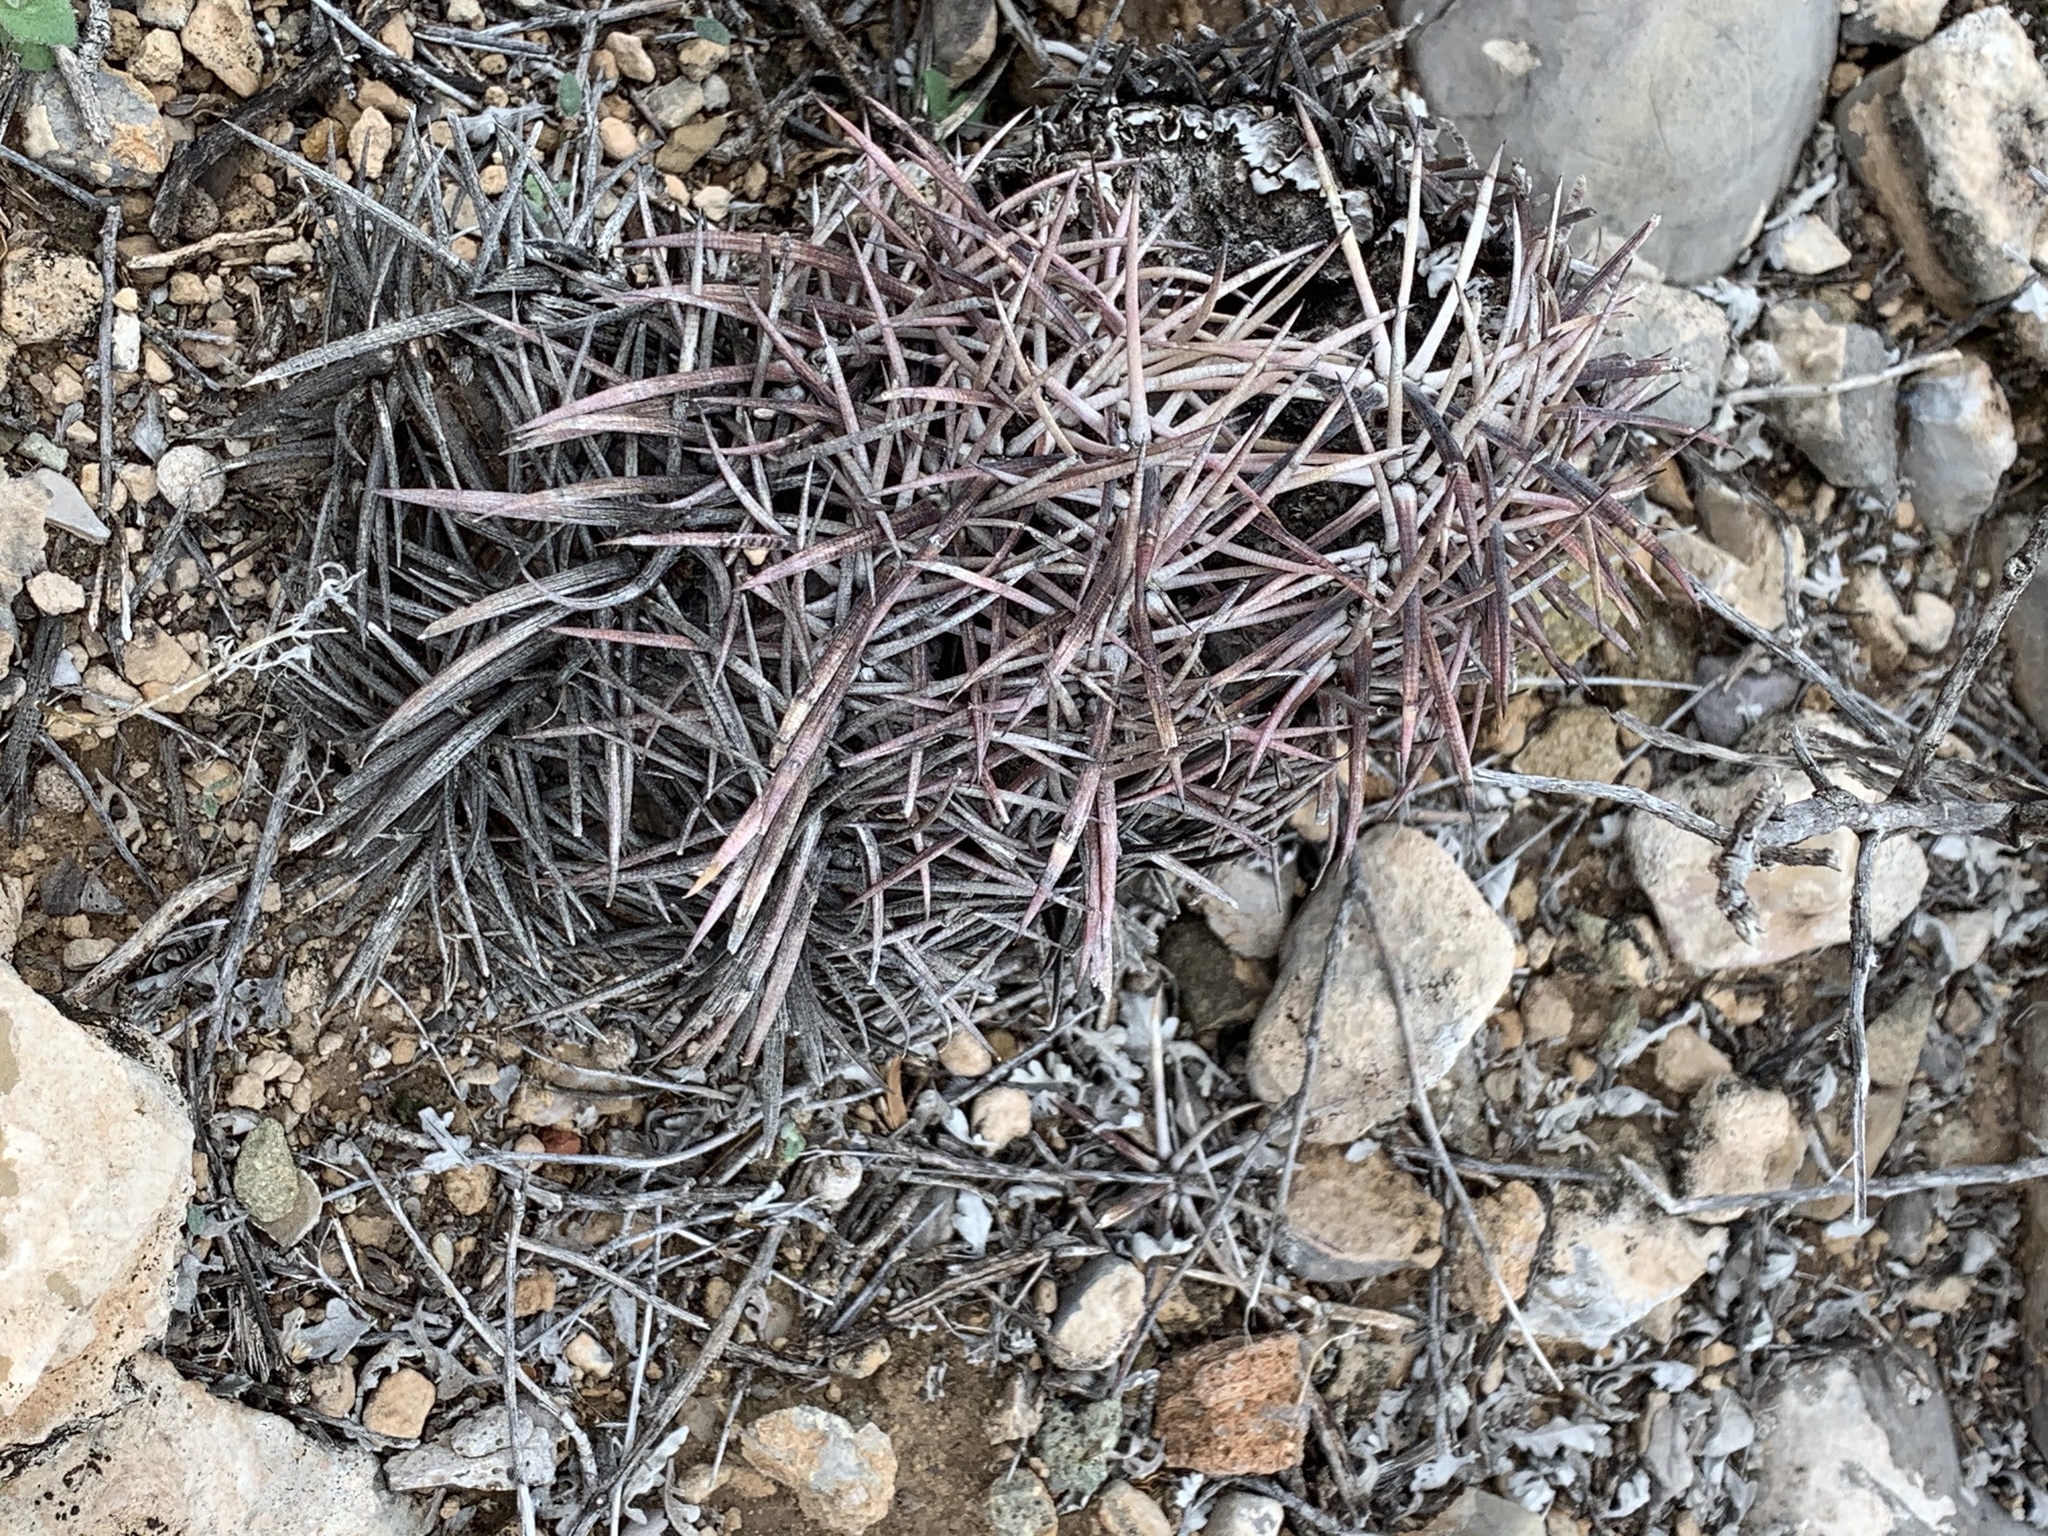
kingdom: Plantae
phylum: Tracheophyta
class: Magnoliopsida
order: Caryophyllales
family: Cactaceae
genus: Echinocactus
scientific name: Echinocactus horizonthalonius
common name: Devilshead
